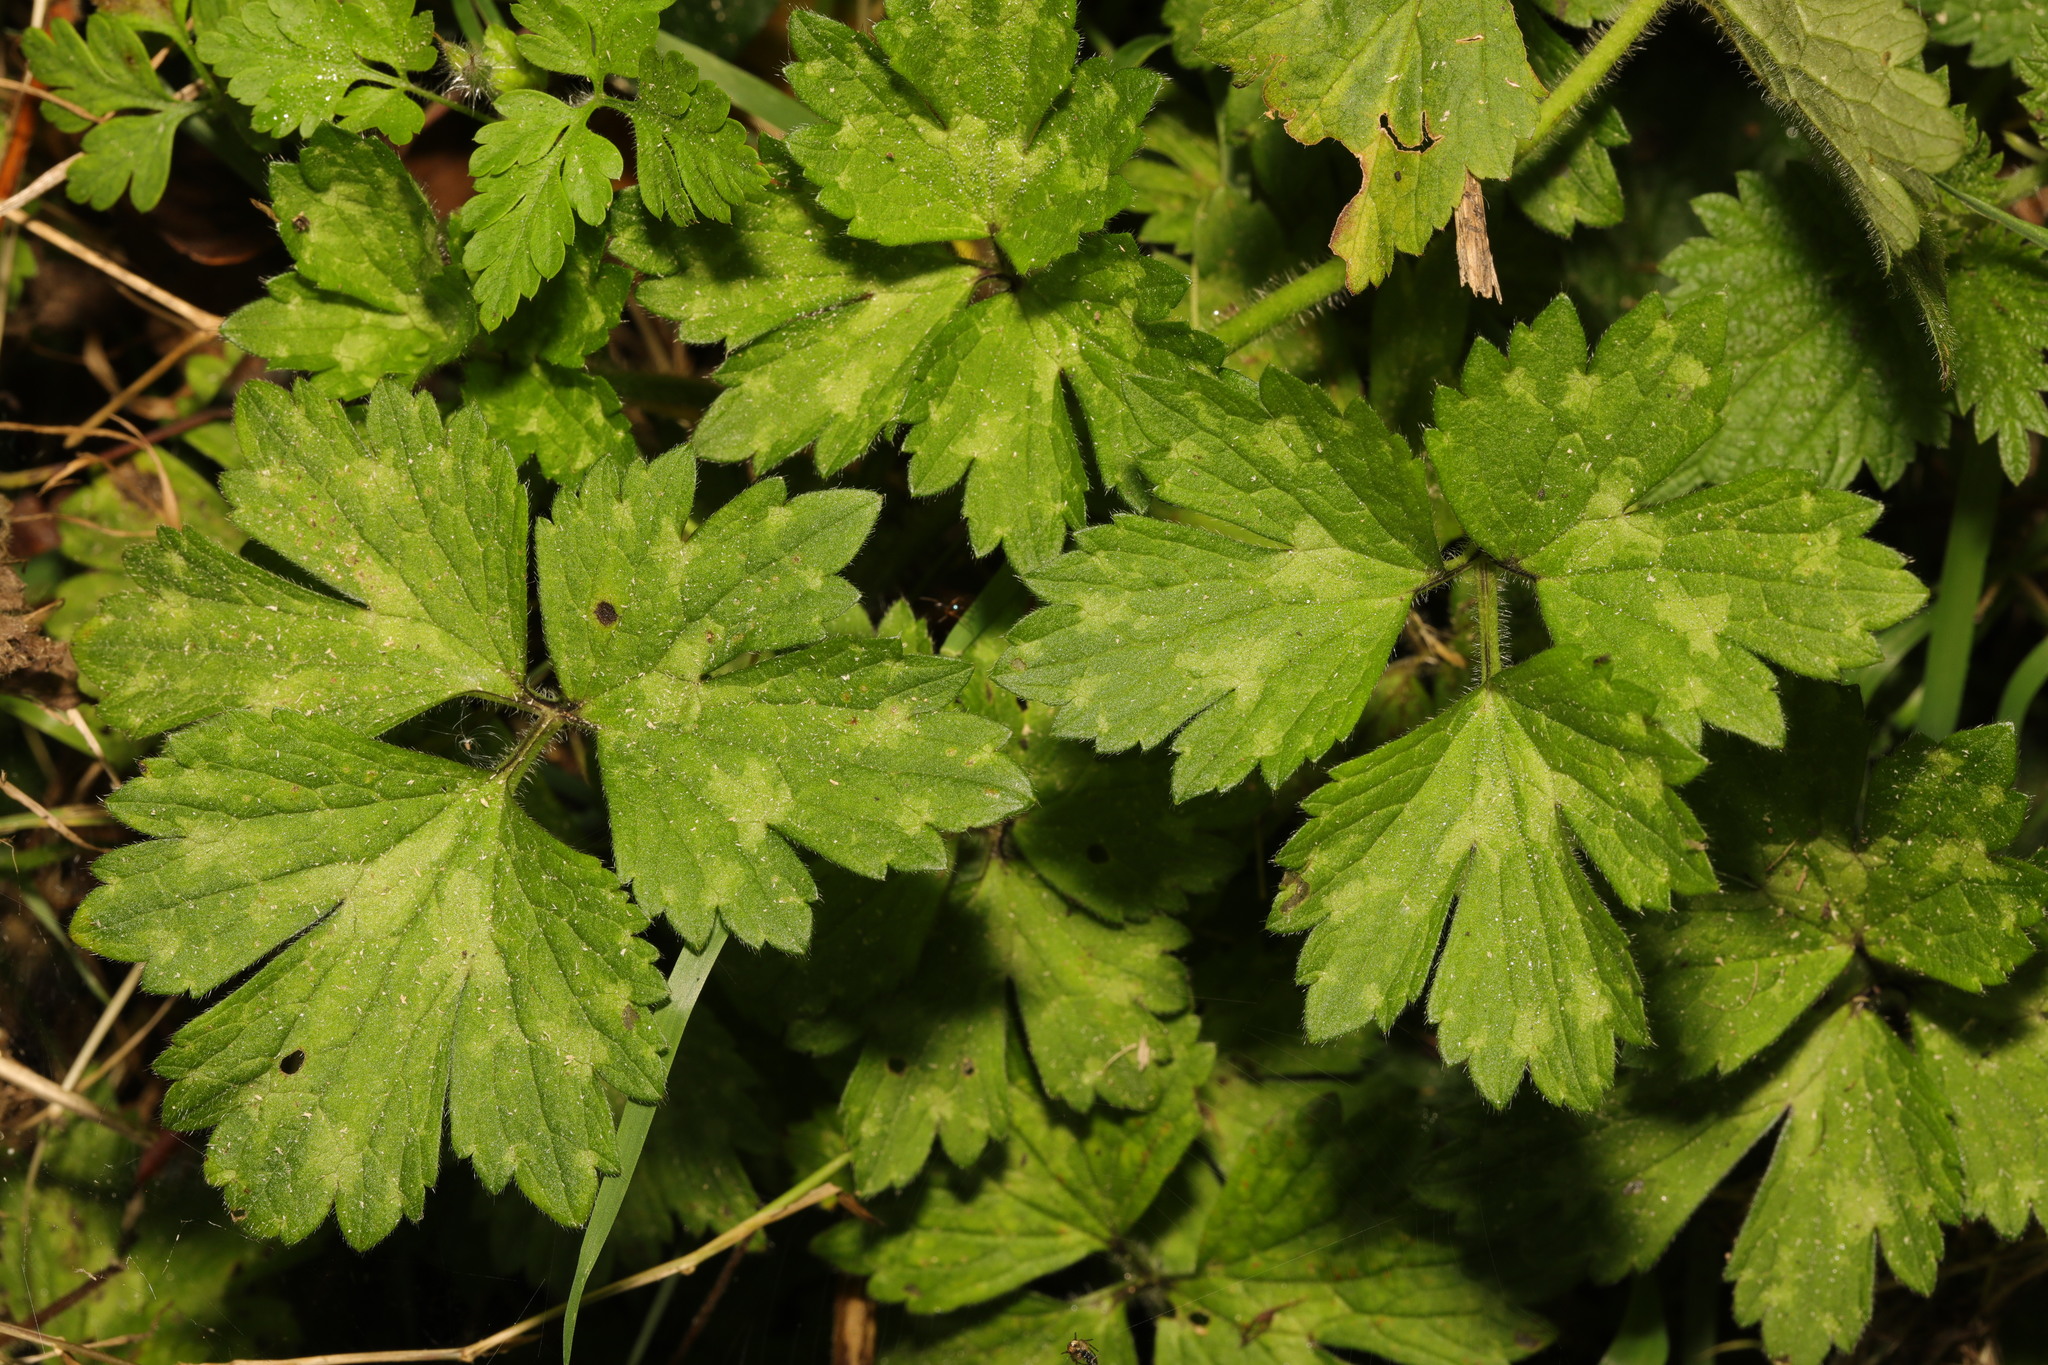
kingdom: Plantae
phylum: Tracheophyta
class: Magnoliopsida
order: Ranunculales
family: Ranunculaceae
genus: Ranunculus
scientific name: Ranunculus repens
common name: Creeping buttercup
